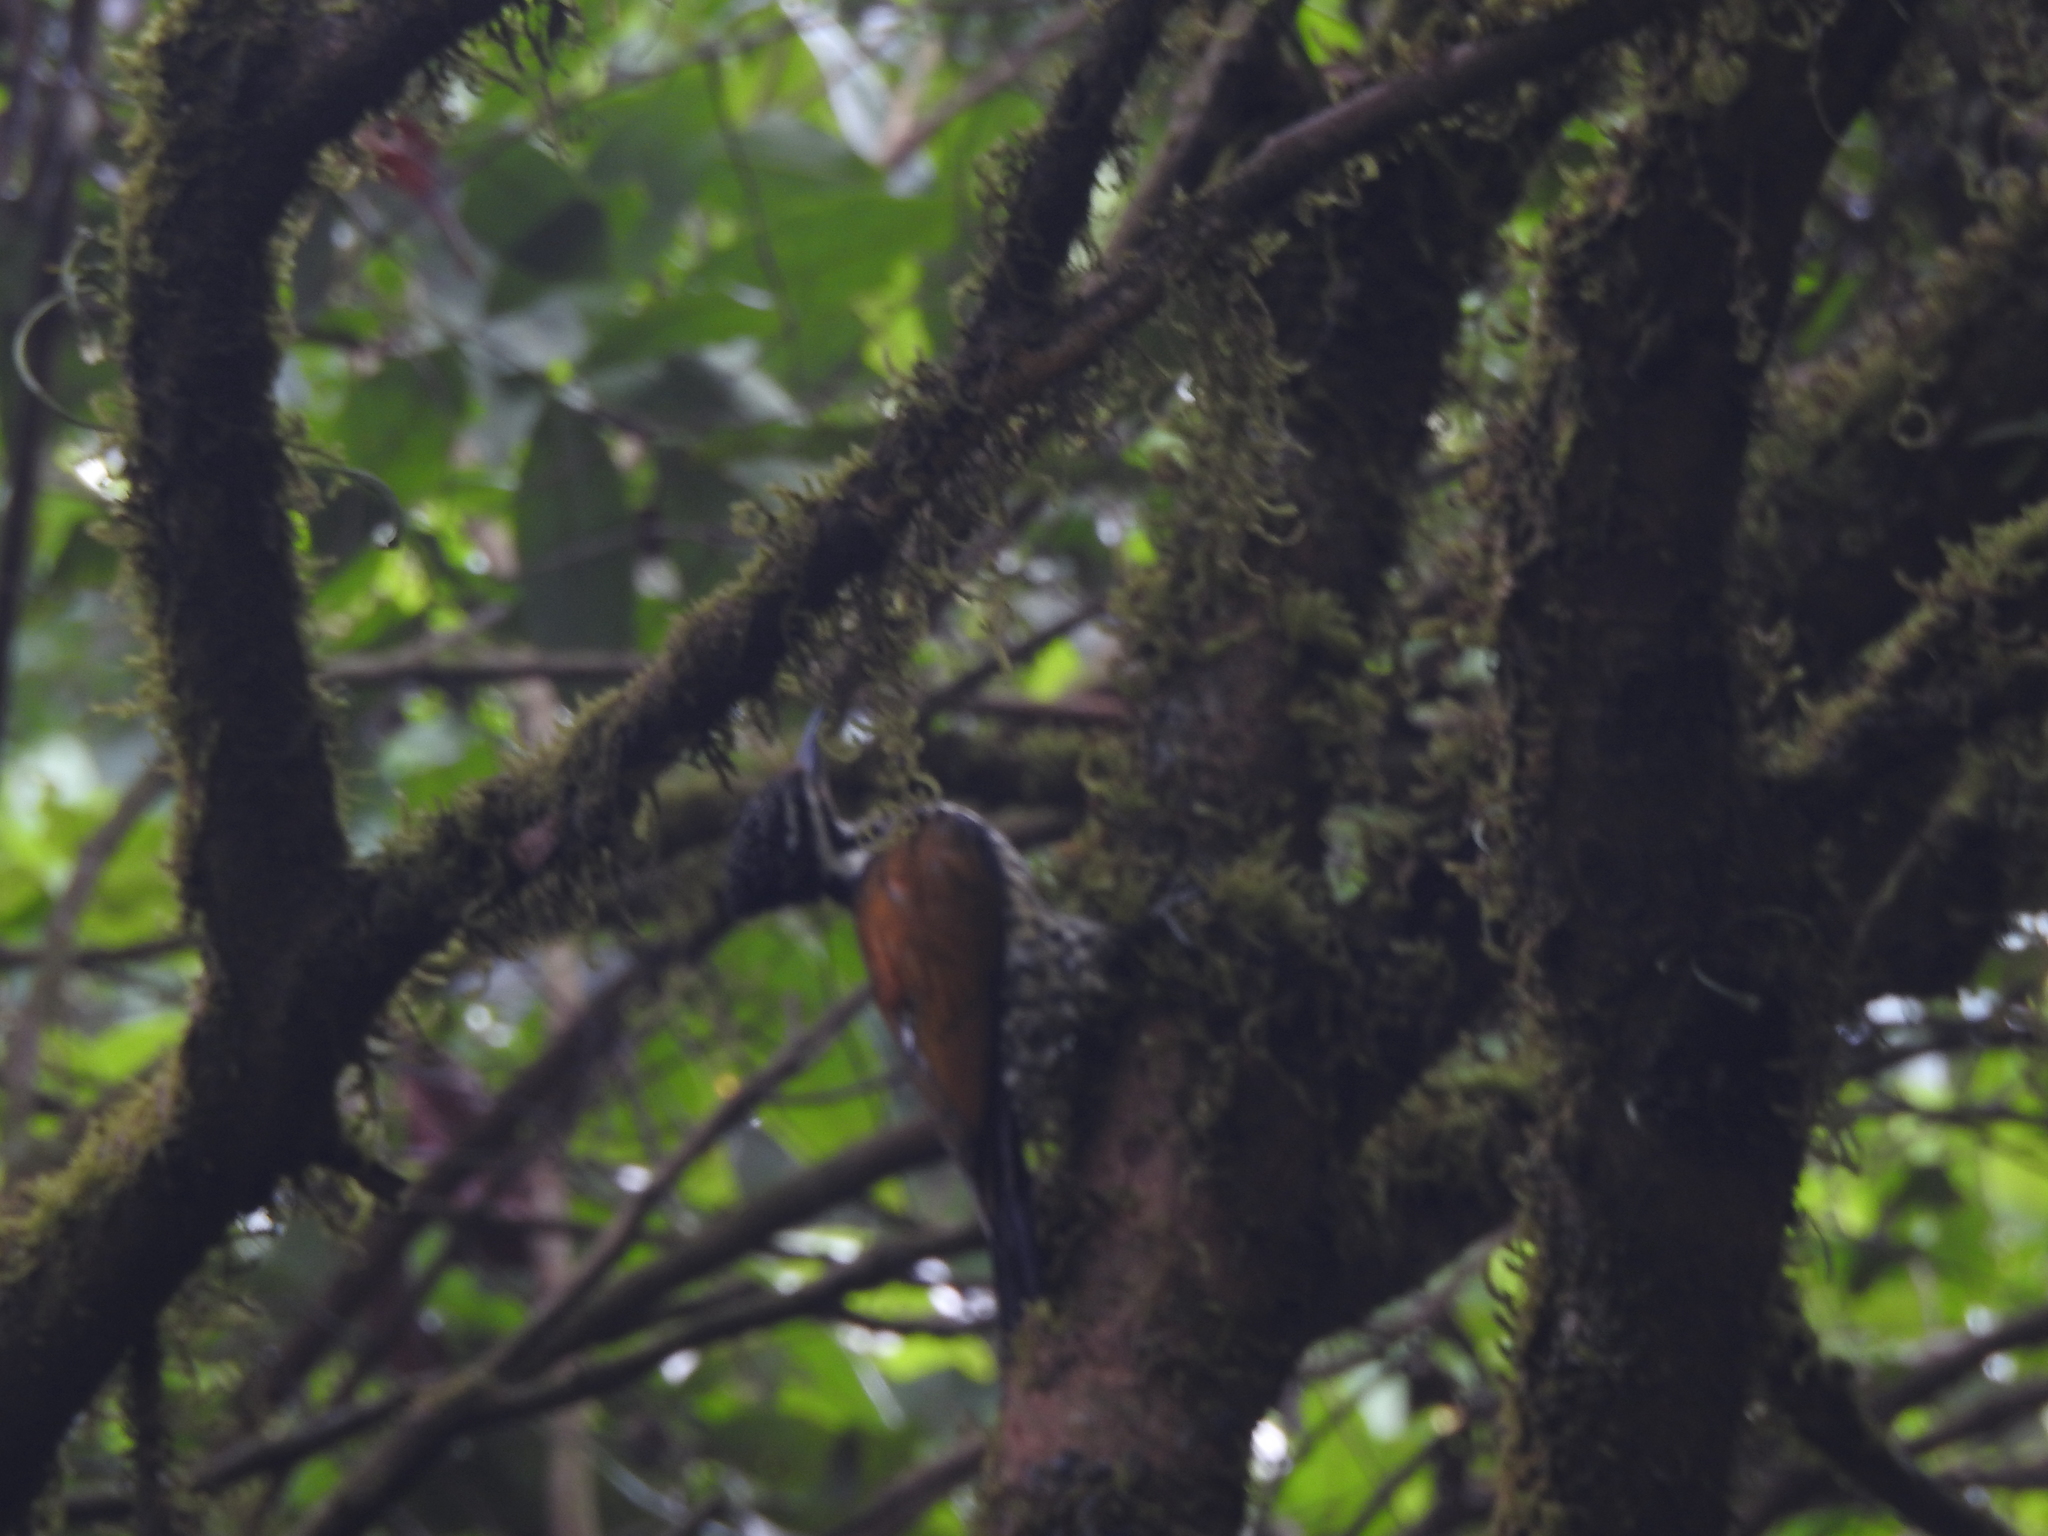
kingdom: Animalia
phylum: Chordata
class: Aves
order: Piciformes
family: Picidae
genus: Dinopium
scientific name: Dinopium javanense
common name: Common flameback
